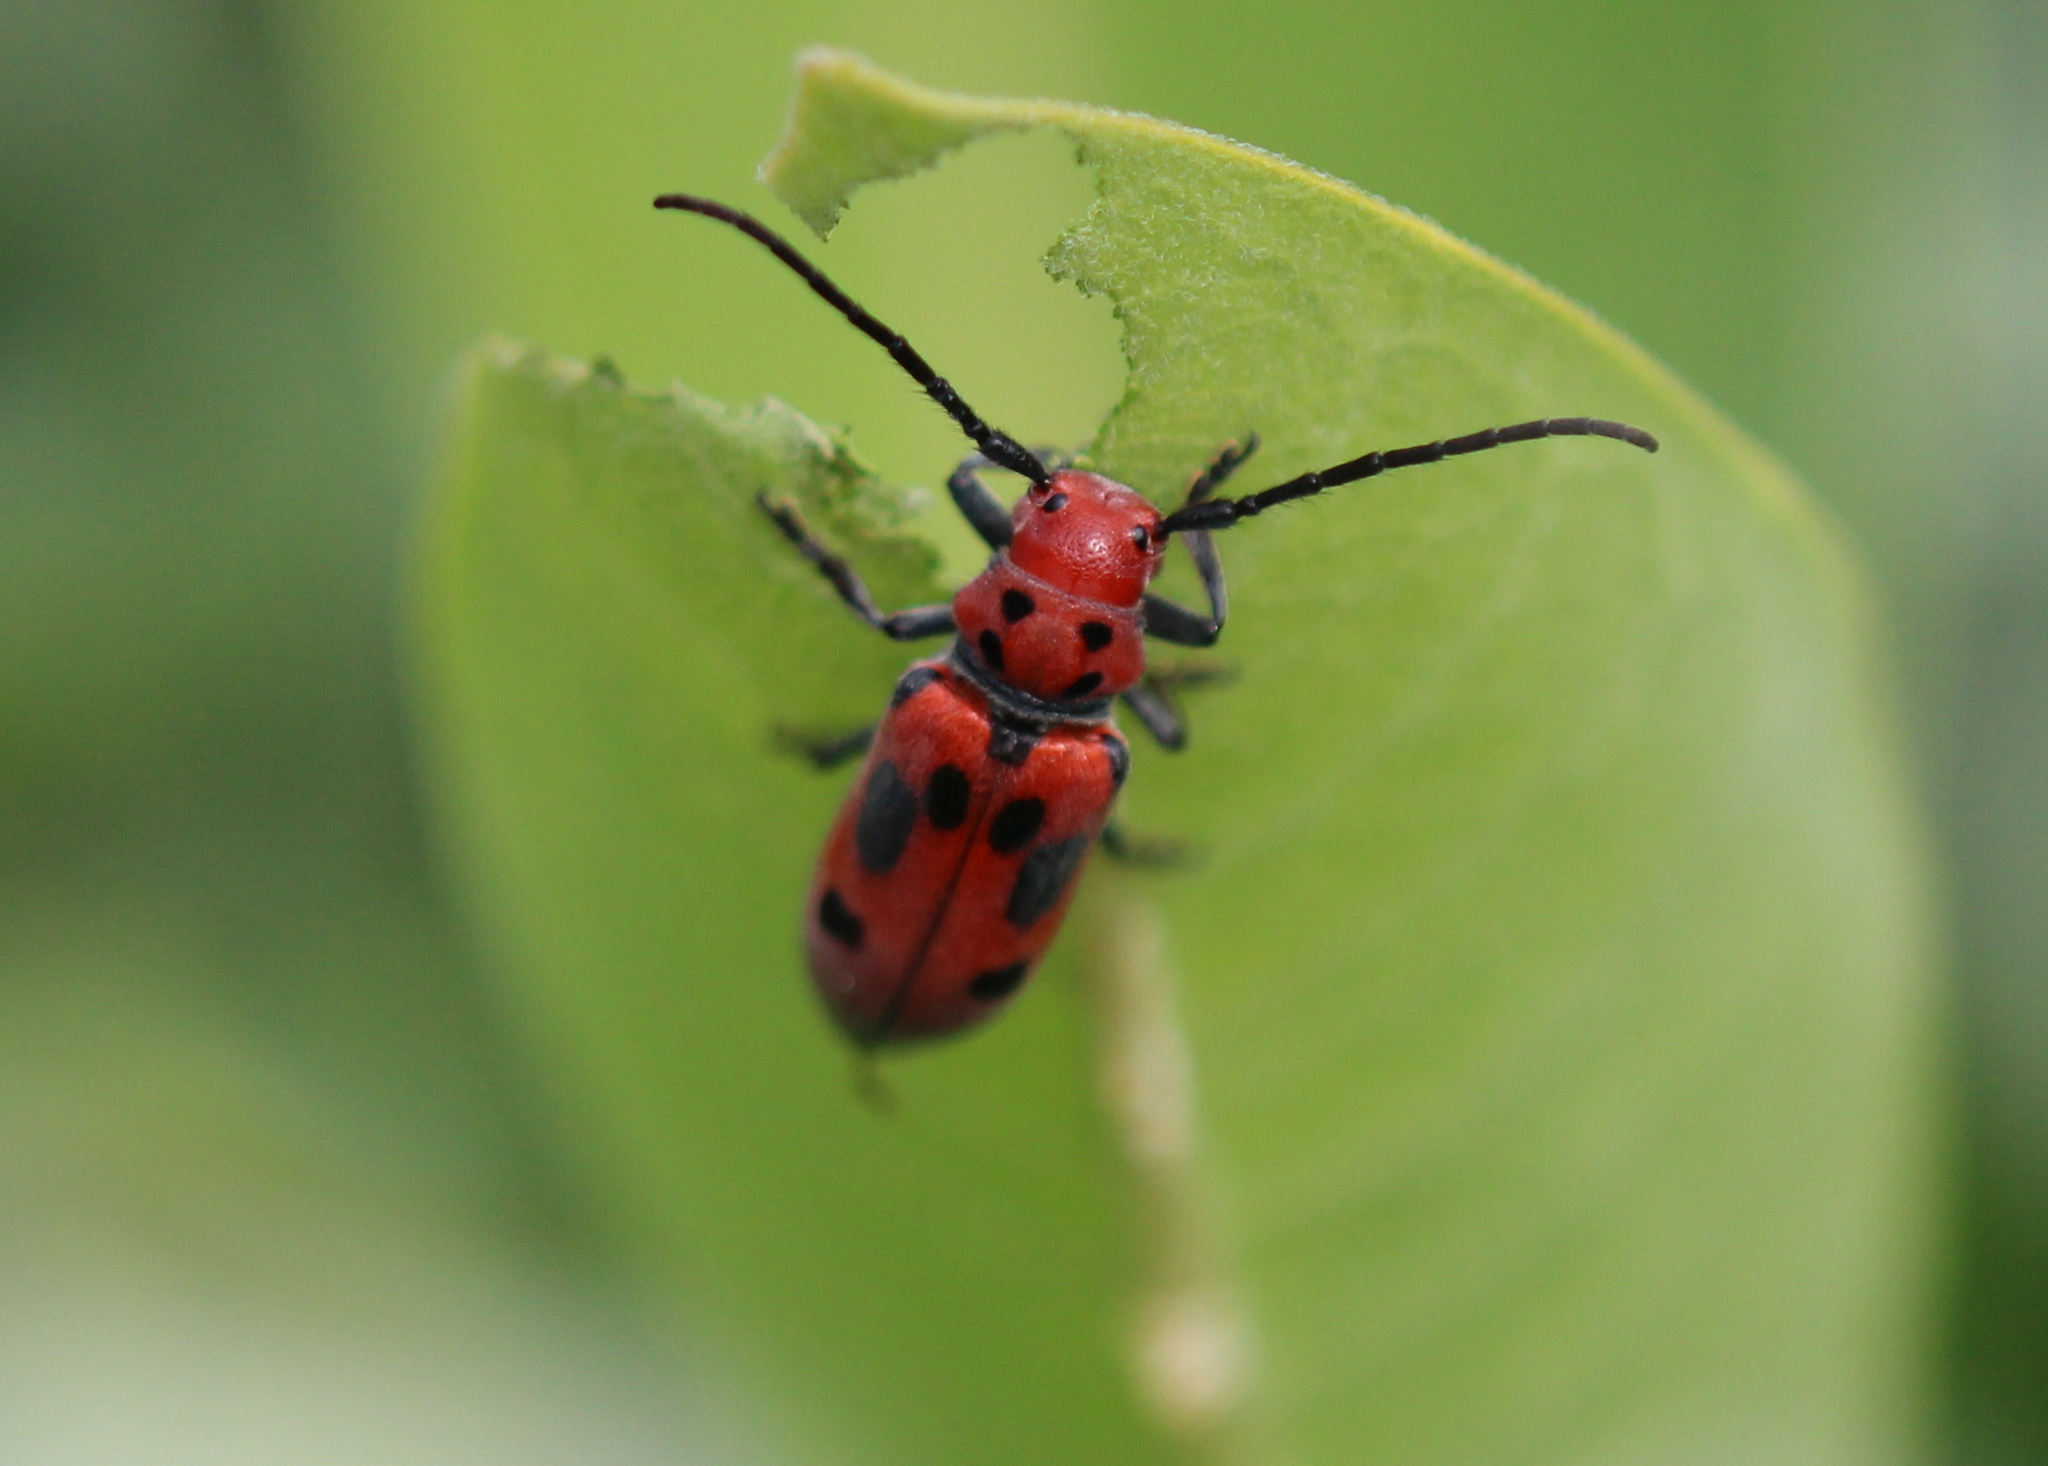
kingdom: Animalia
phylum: Arthropoda
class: Insecta
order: Coleoptera
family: Cerambycidae
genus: Tetraopes
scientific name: Tetraopes tetrophthalmus
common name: Red milkweed beetle
